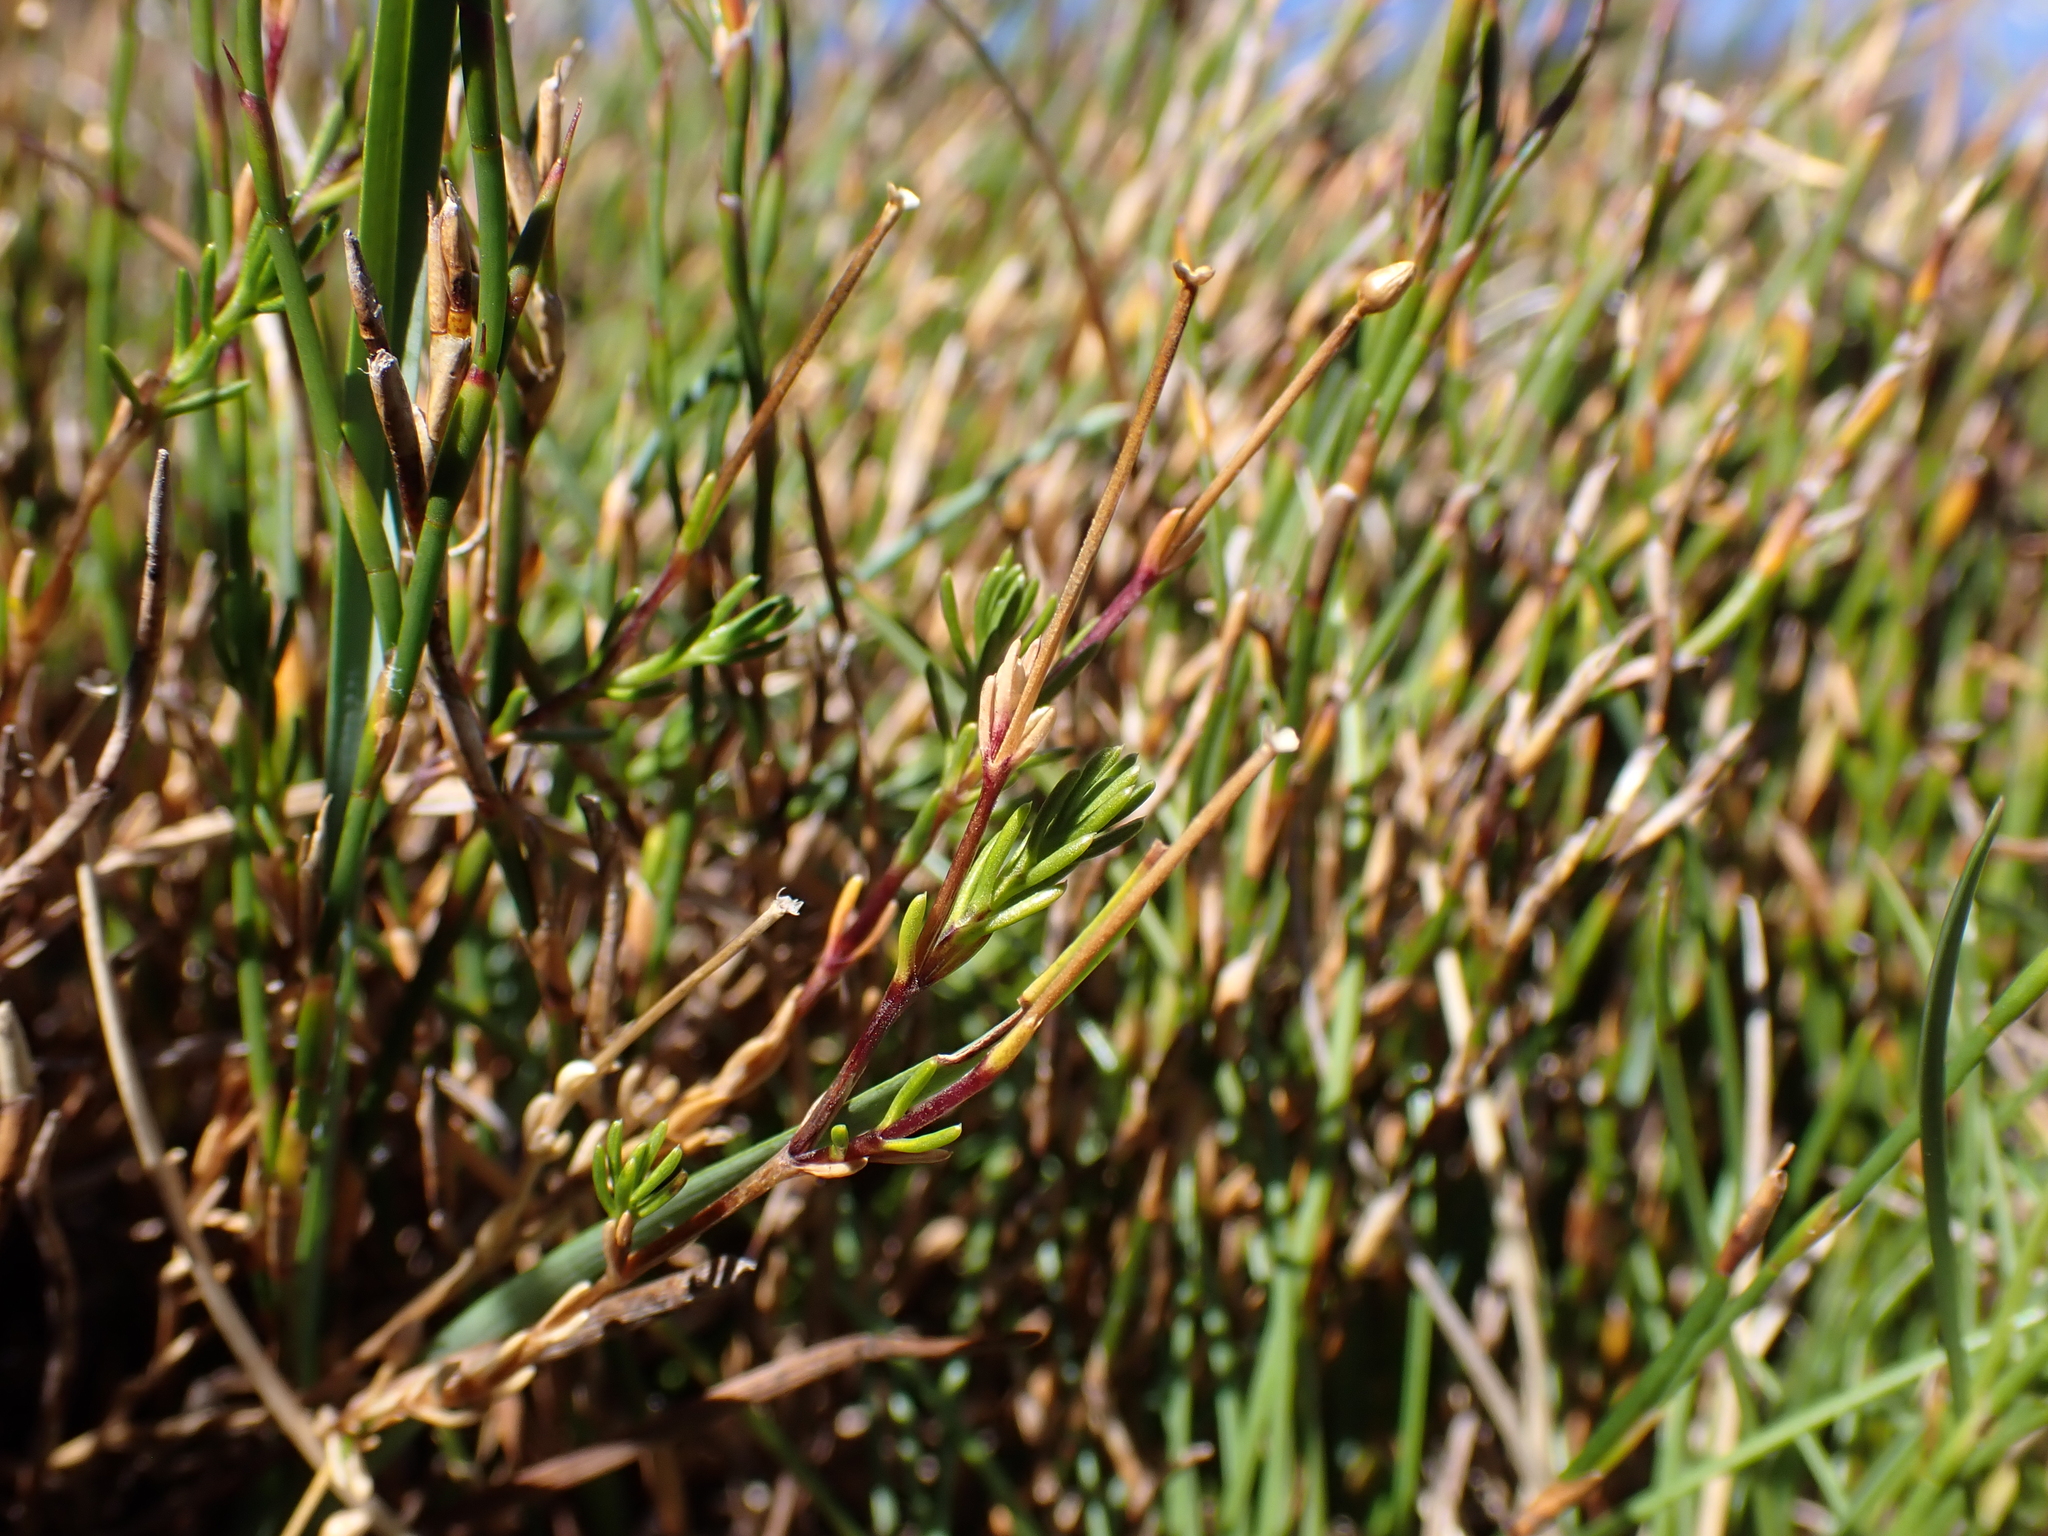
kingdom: Plantae
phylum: Tracheophyta
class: Magnoliopsida
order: Caryophyllales
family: Caryophyllaceae
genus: Scleranthus
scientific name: Scleranthus singuliflorus
